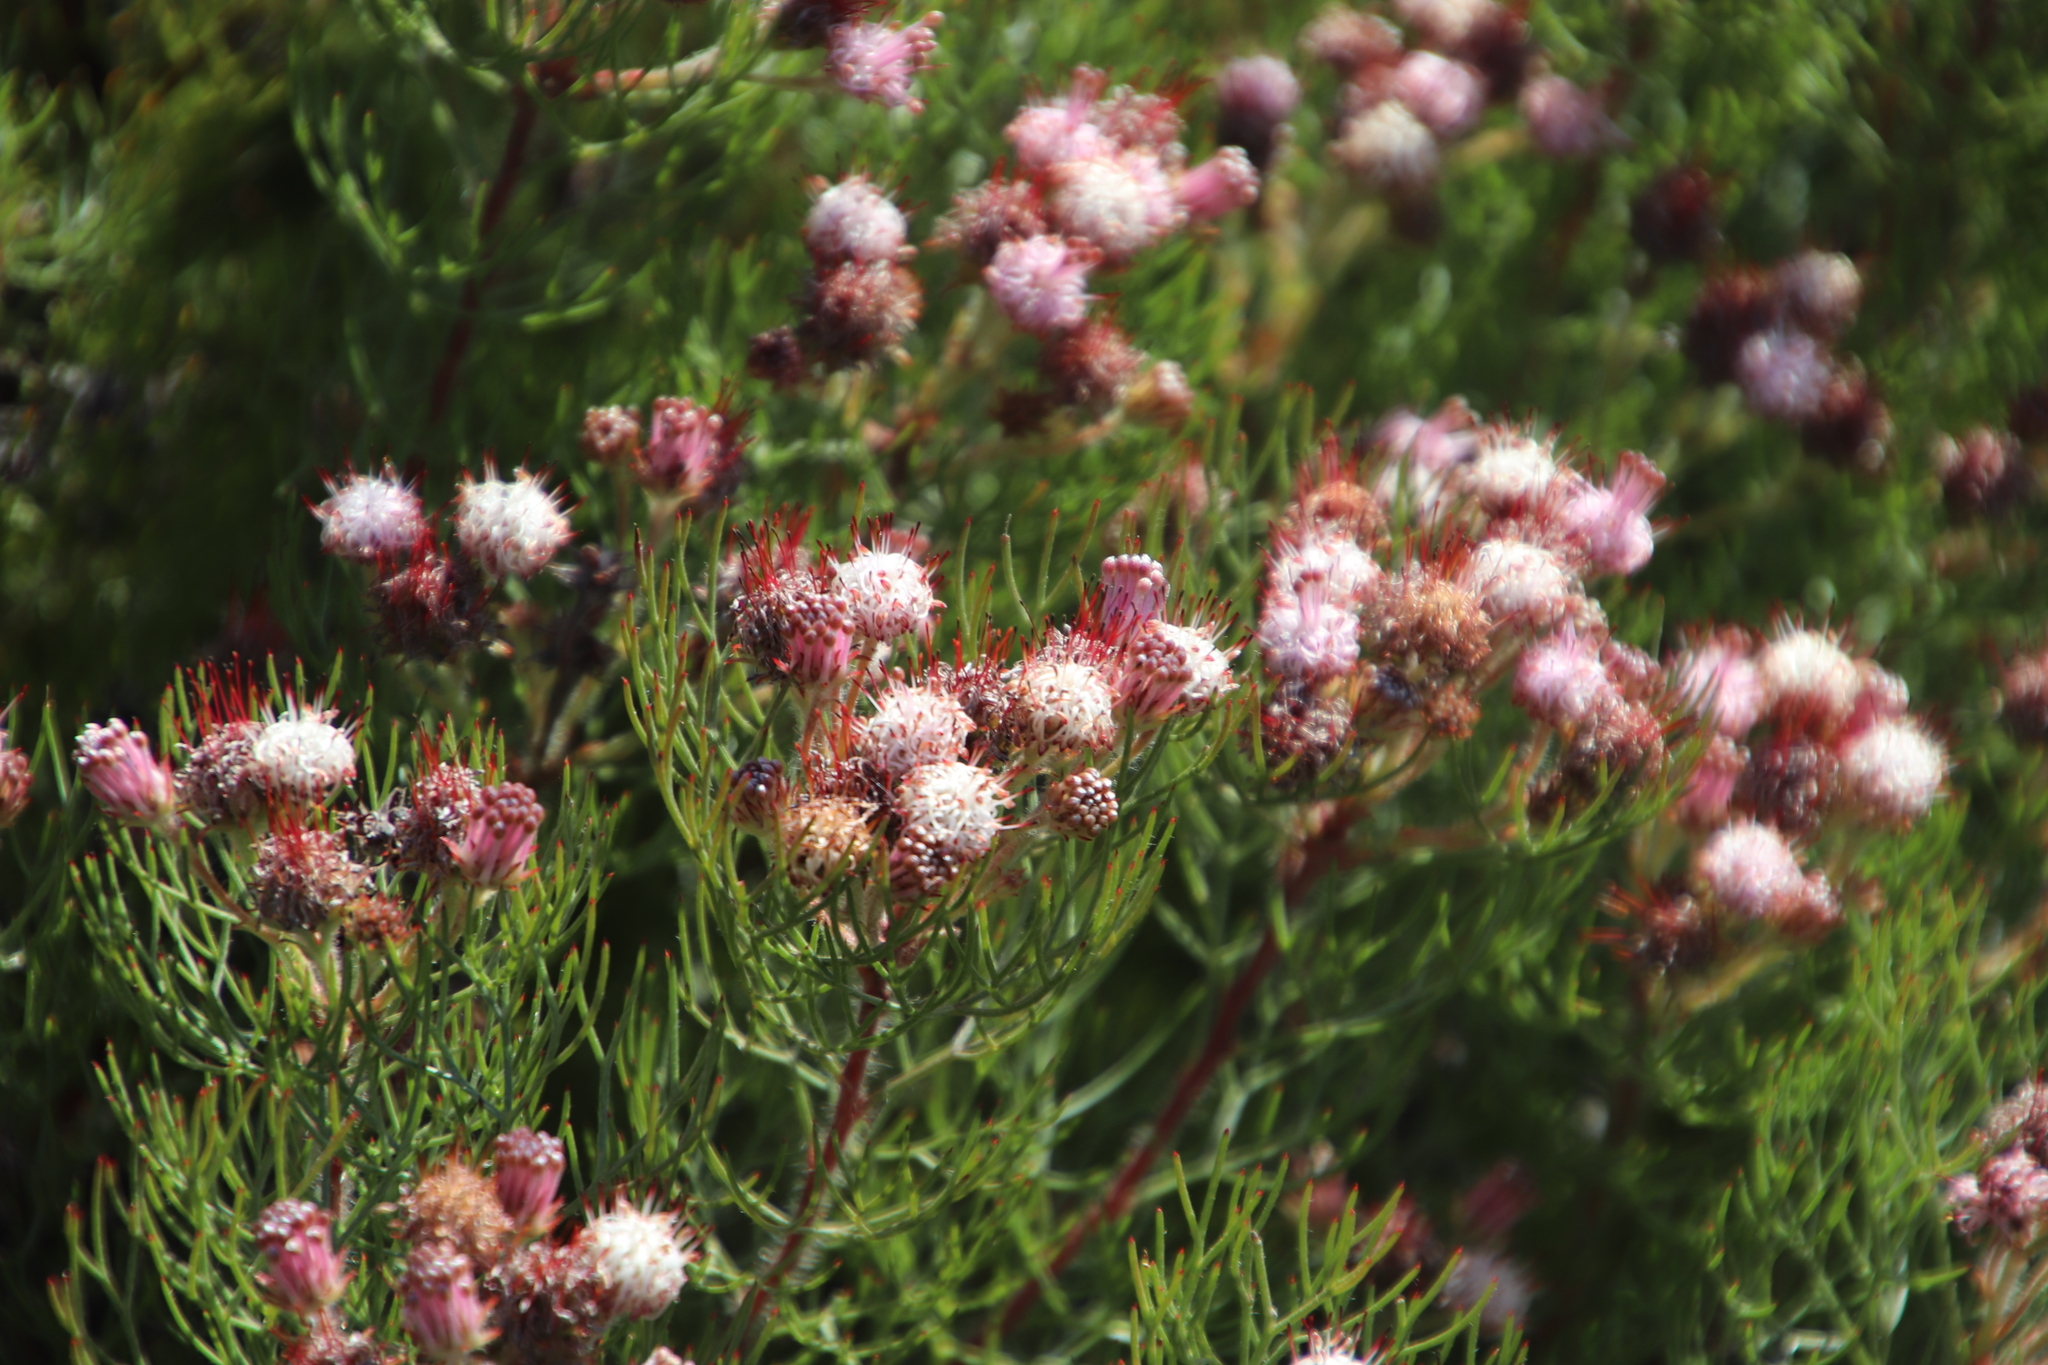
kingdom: Plantae
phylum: Tracheophyta
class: Magnoliopsida
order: Proteales
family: Proteaceae
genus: Serruria
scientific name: Serruria fasciflora
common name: Common pin spiderhead
